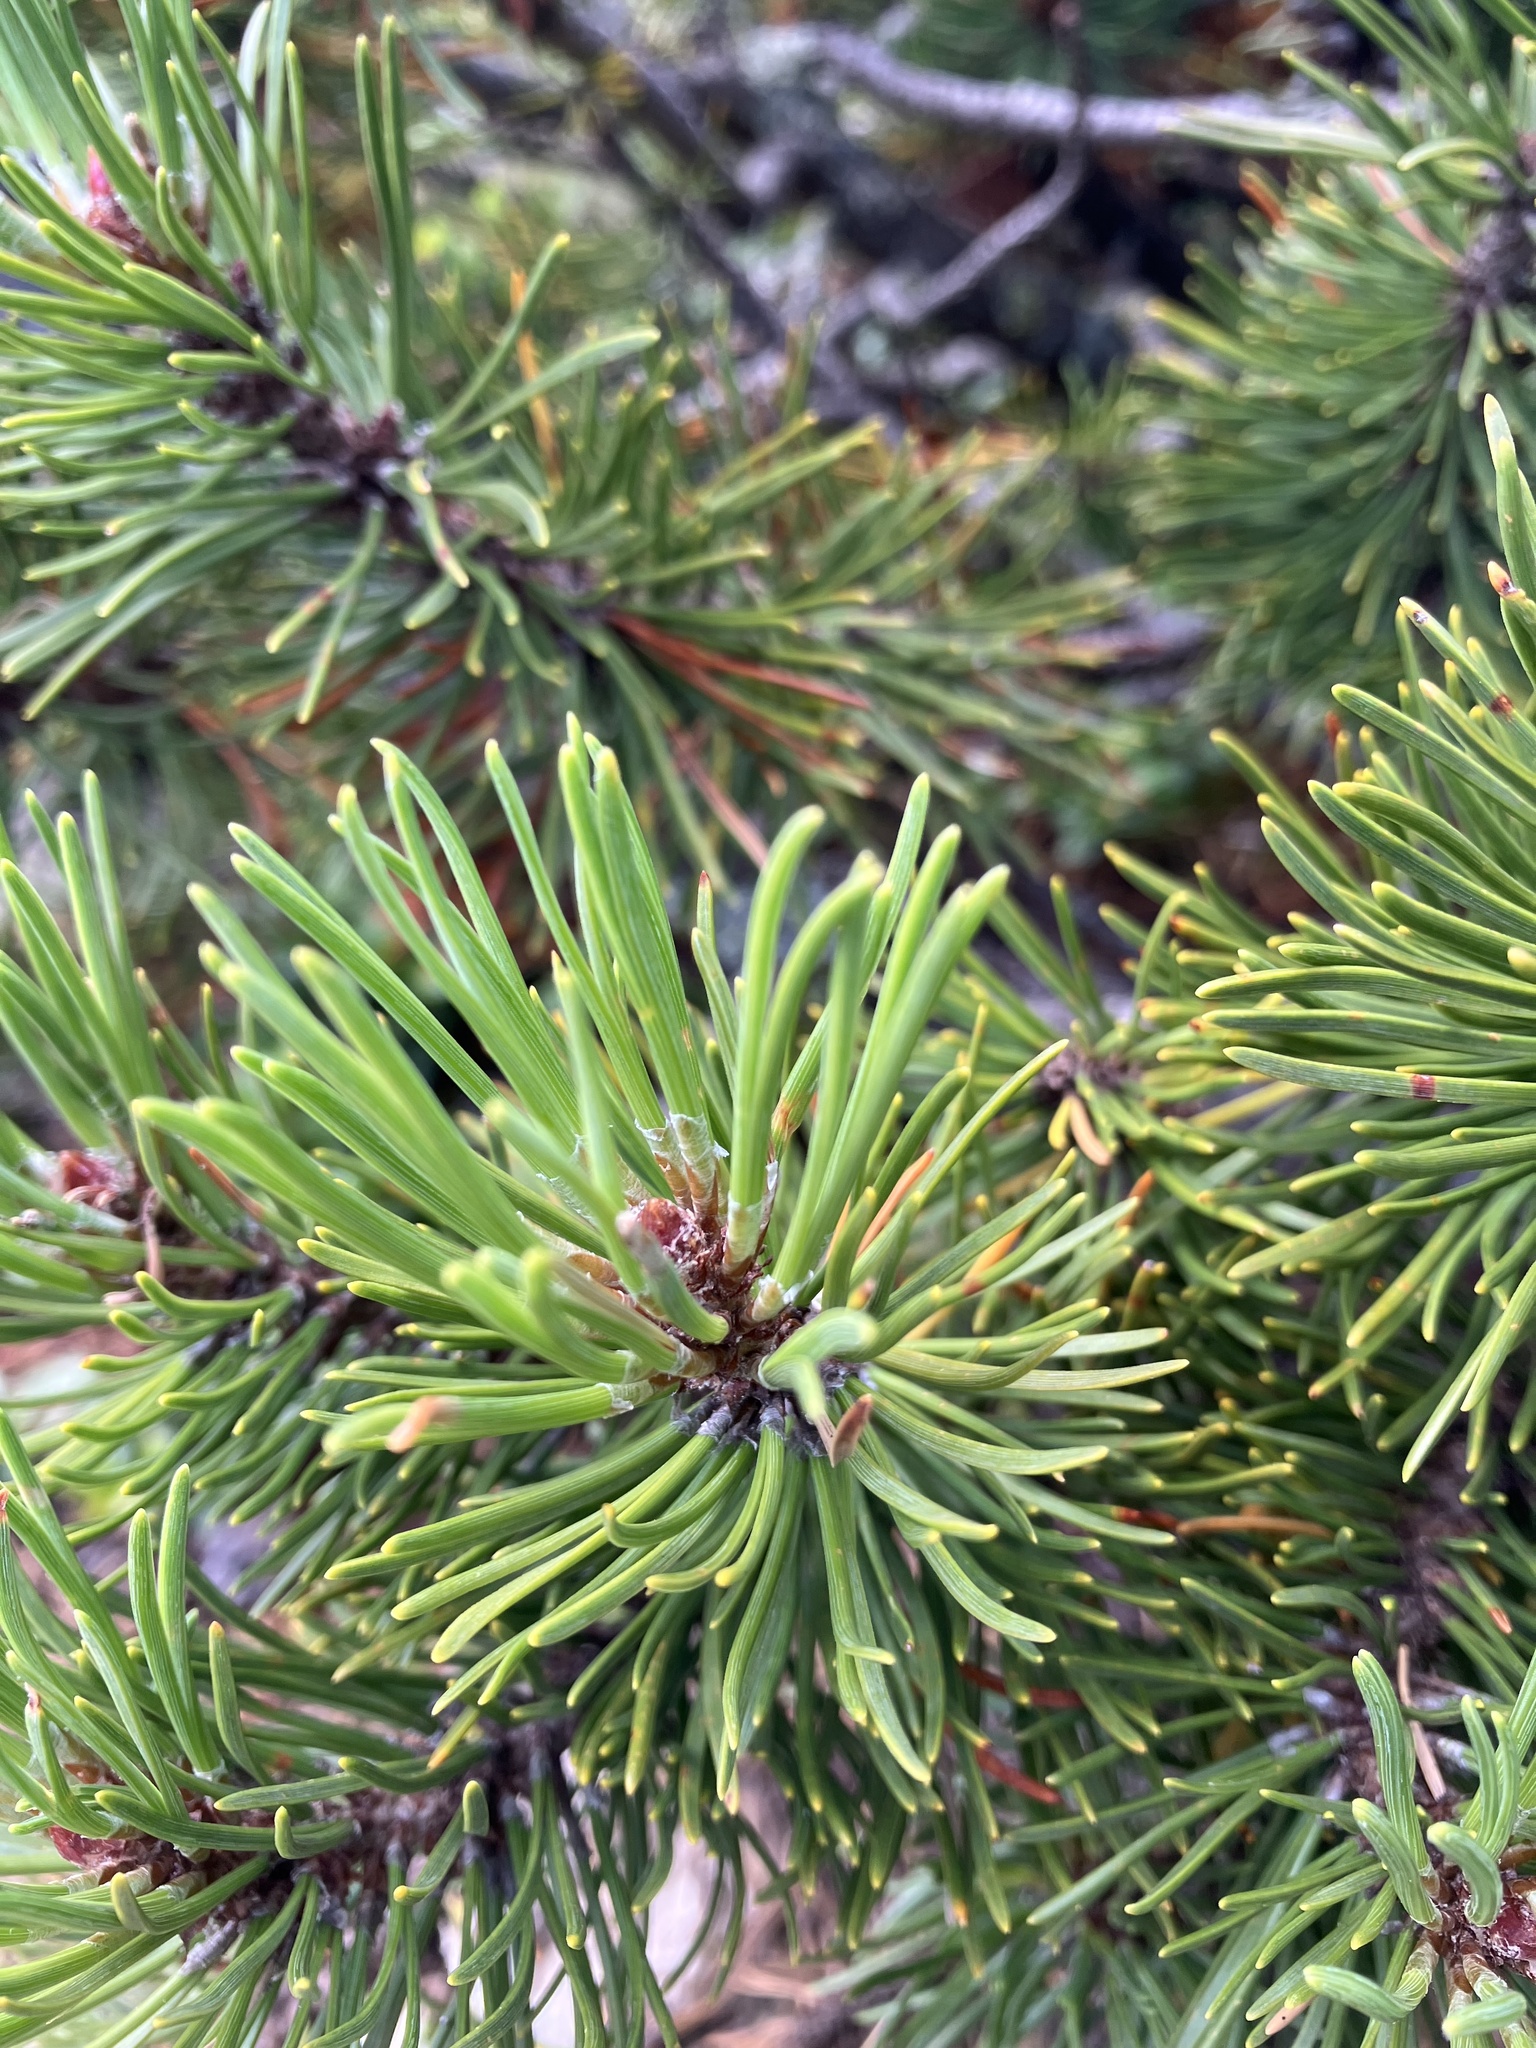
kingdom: Plantae
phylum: Tracheophyta
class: Pinopsida
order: Pinales
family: Pinaceae
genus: Pinus
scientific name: Pinus mugo
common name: Mugo pine
